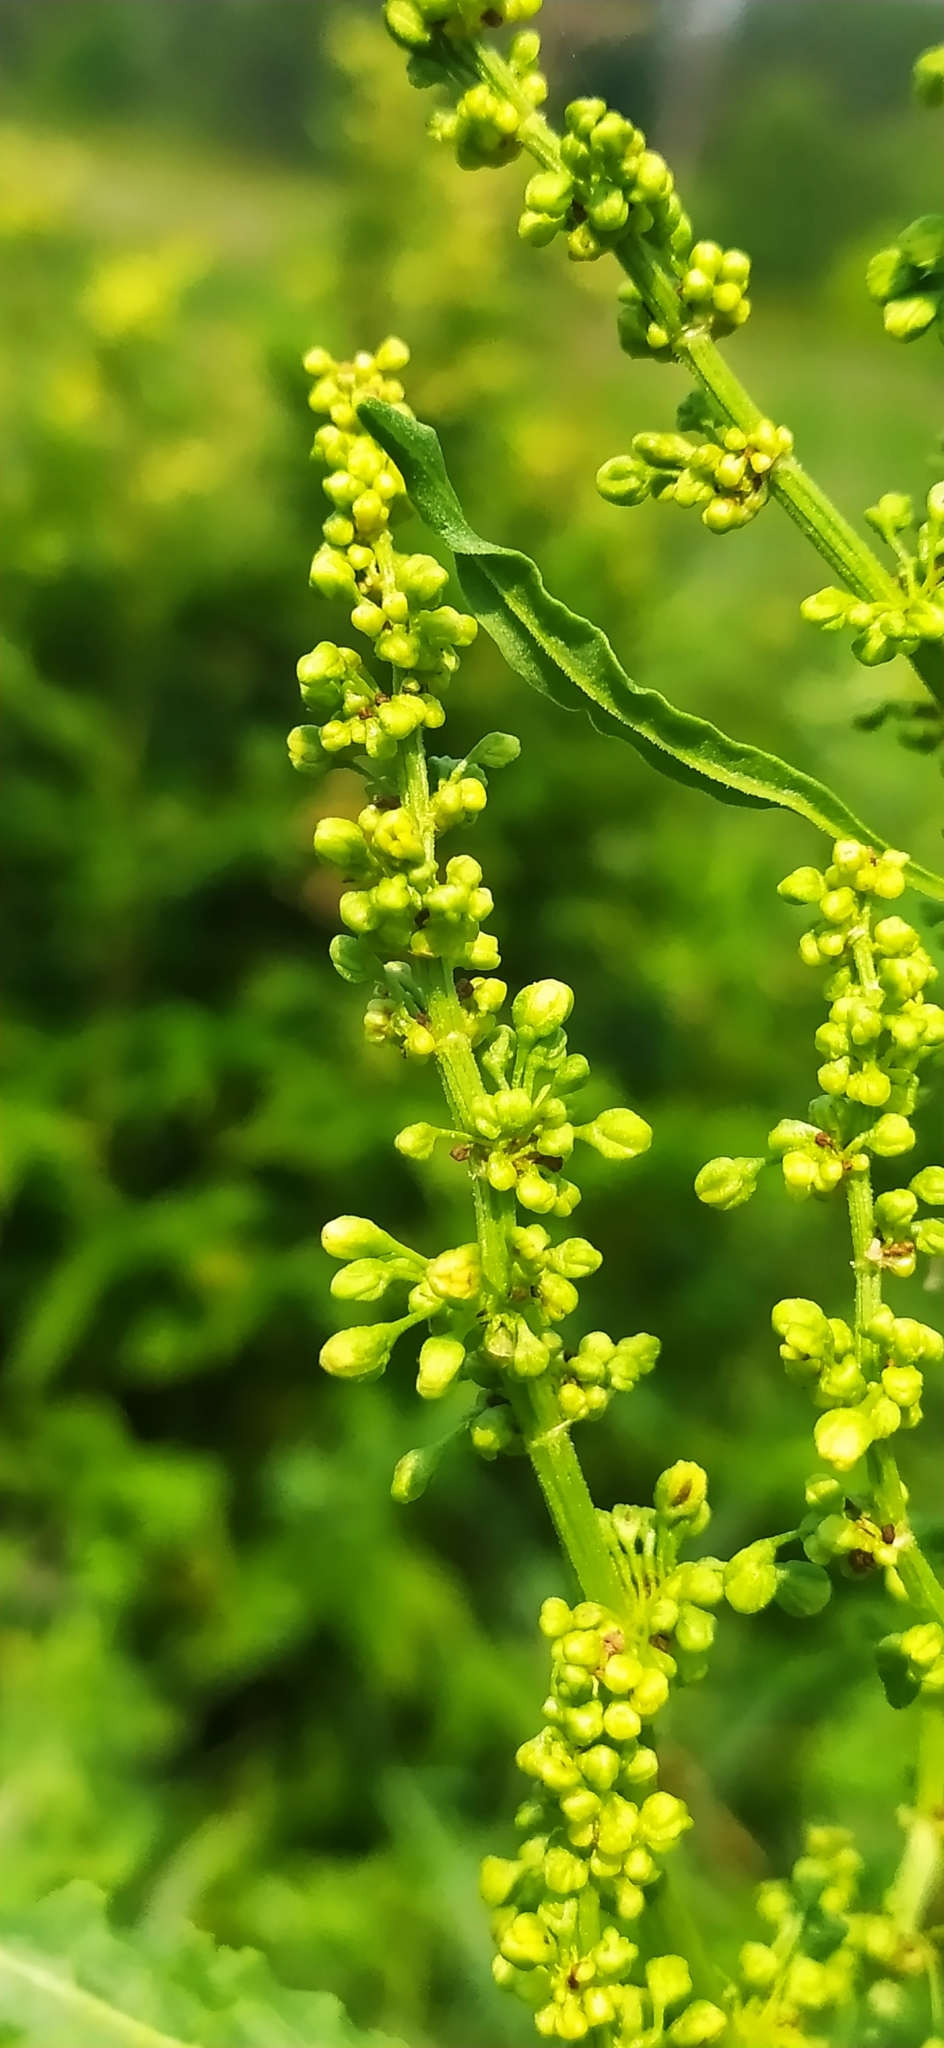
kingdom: Plantae
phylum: Tracheophyta
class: Magnoliopsida
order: Caryophyllales
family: Polygonaceae
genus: Rumex
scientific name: Rumex confertus
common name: Russian dock
